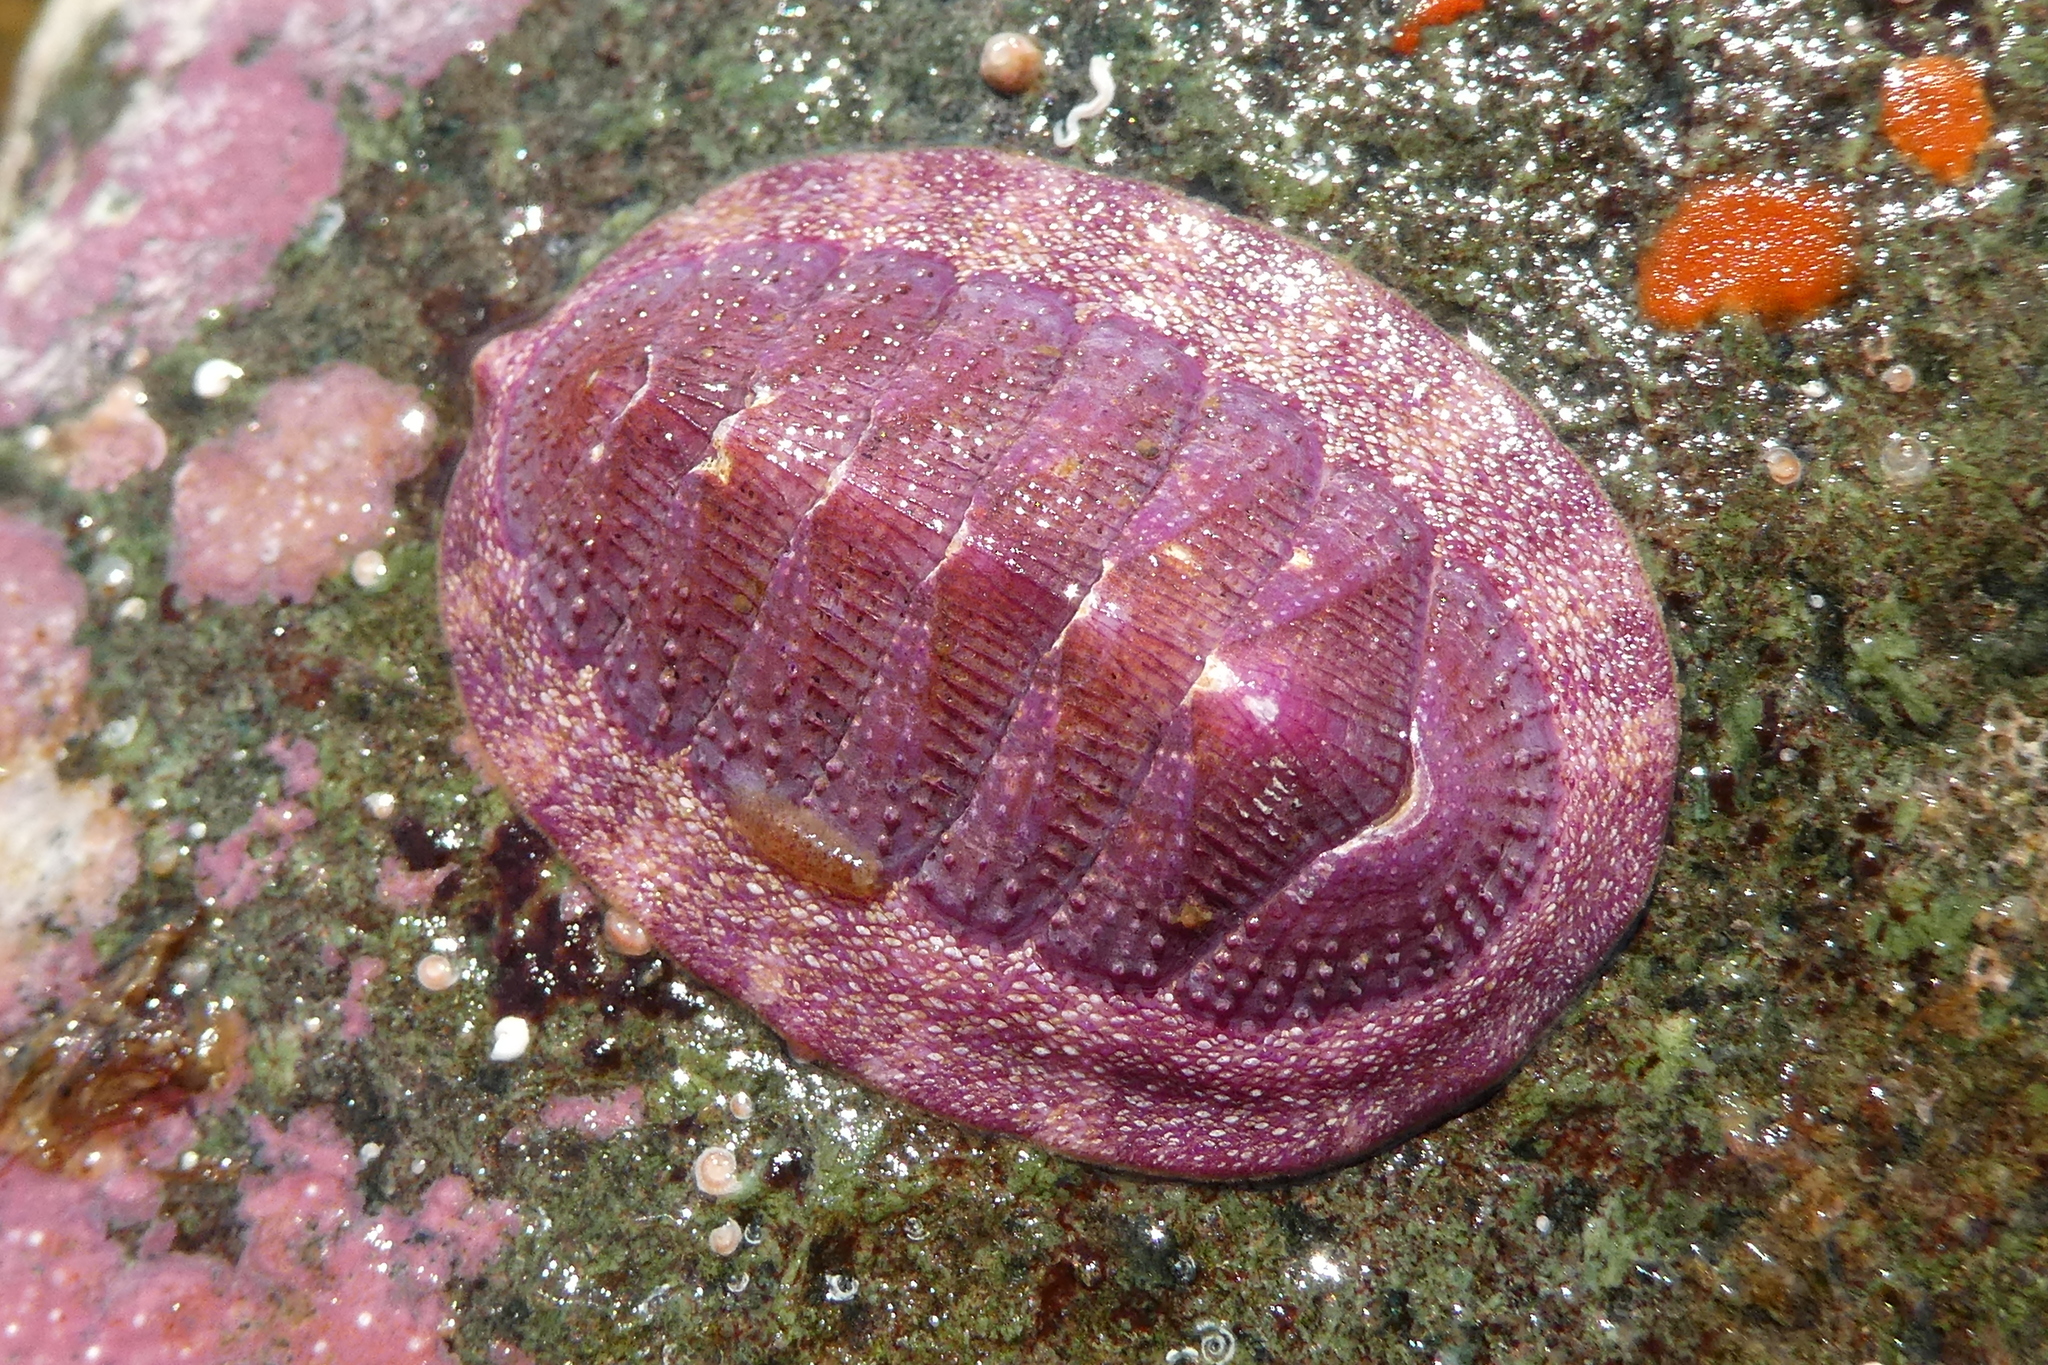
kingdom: Animalia
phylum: Mollusca
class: Polyplacophora
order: Chitonida
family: Ischnochitonidae
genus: Lepidozona
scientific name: Lepidozona mertensii
